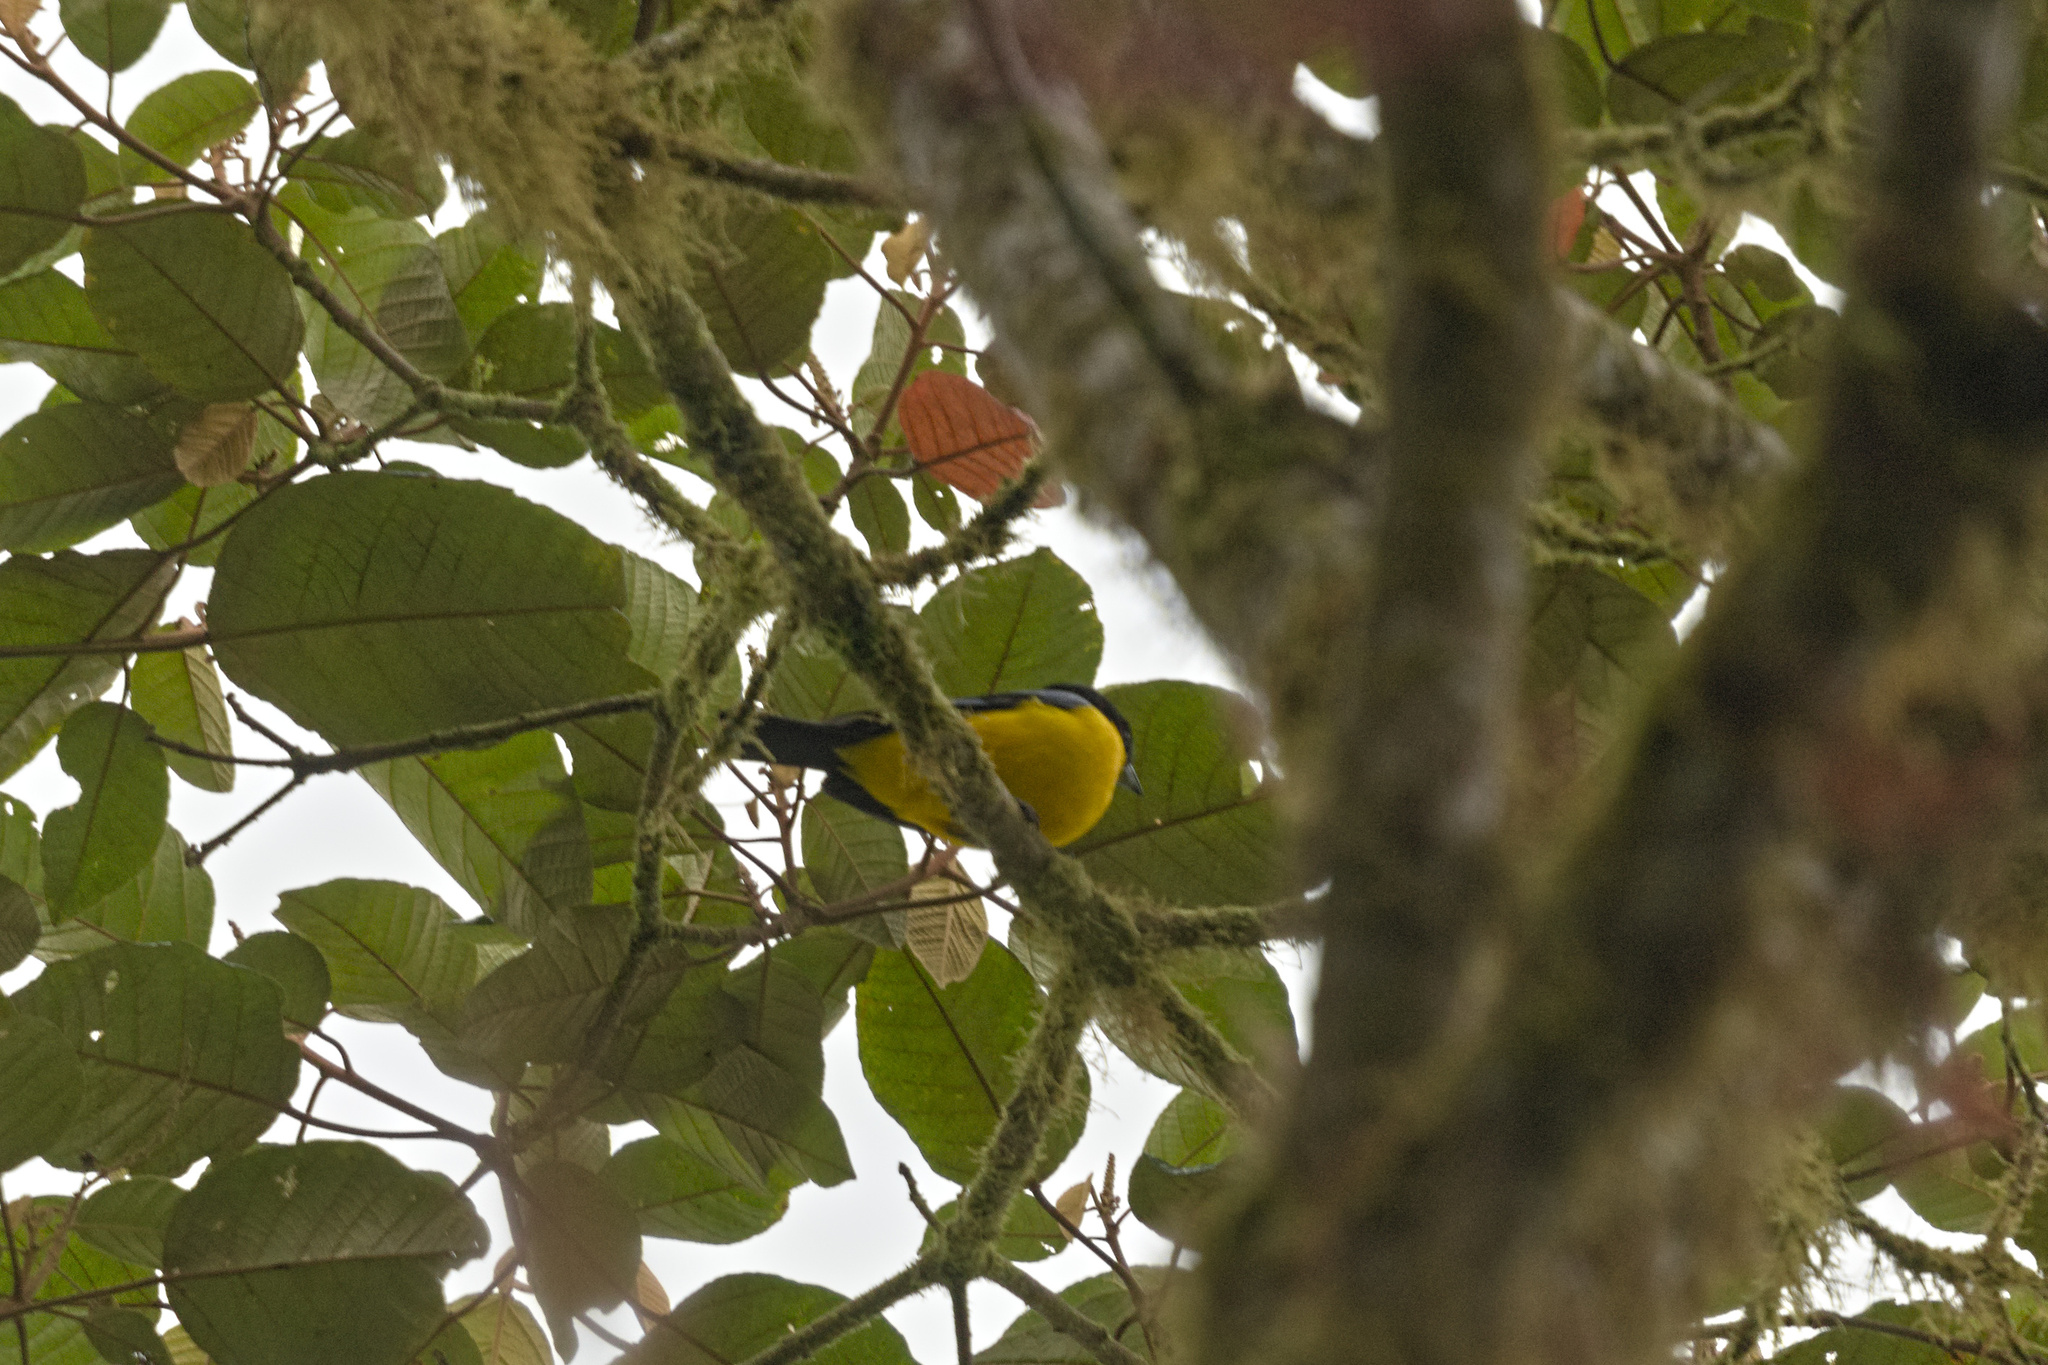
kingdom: Animalia
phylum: Chordata
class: Aves
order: Passeriformes
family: Thraupidae
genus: Anisognathus
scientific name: Anisognathus somptuosus
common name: Blue-winged mountain-tanager
